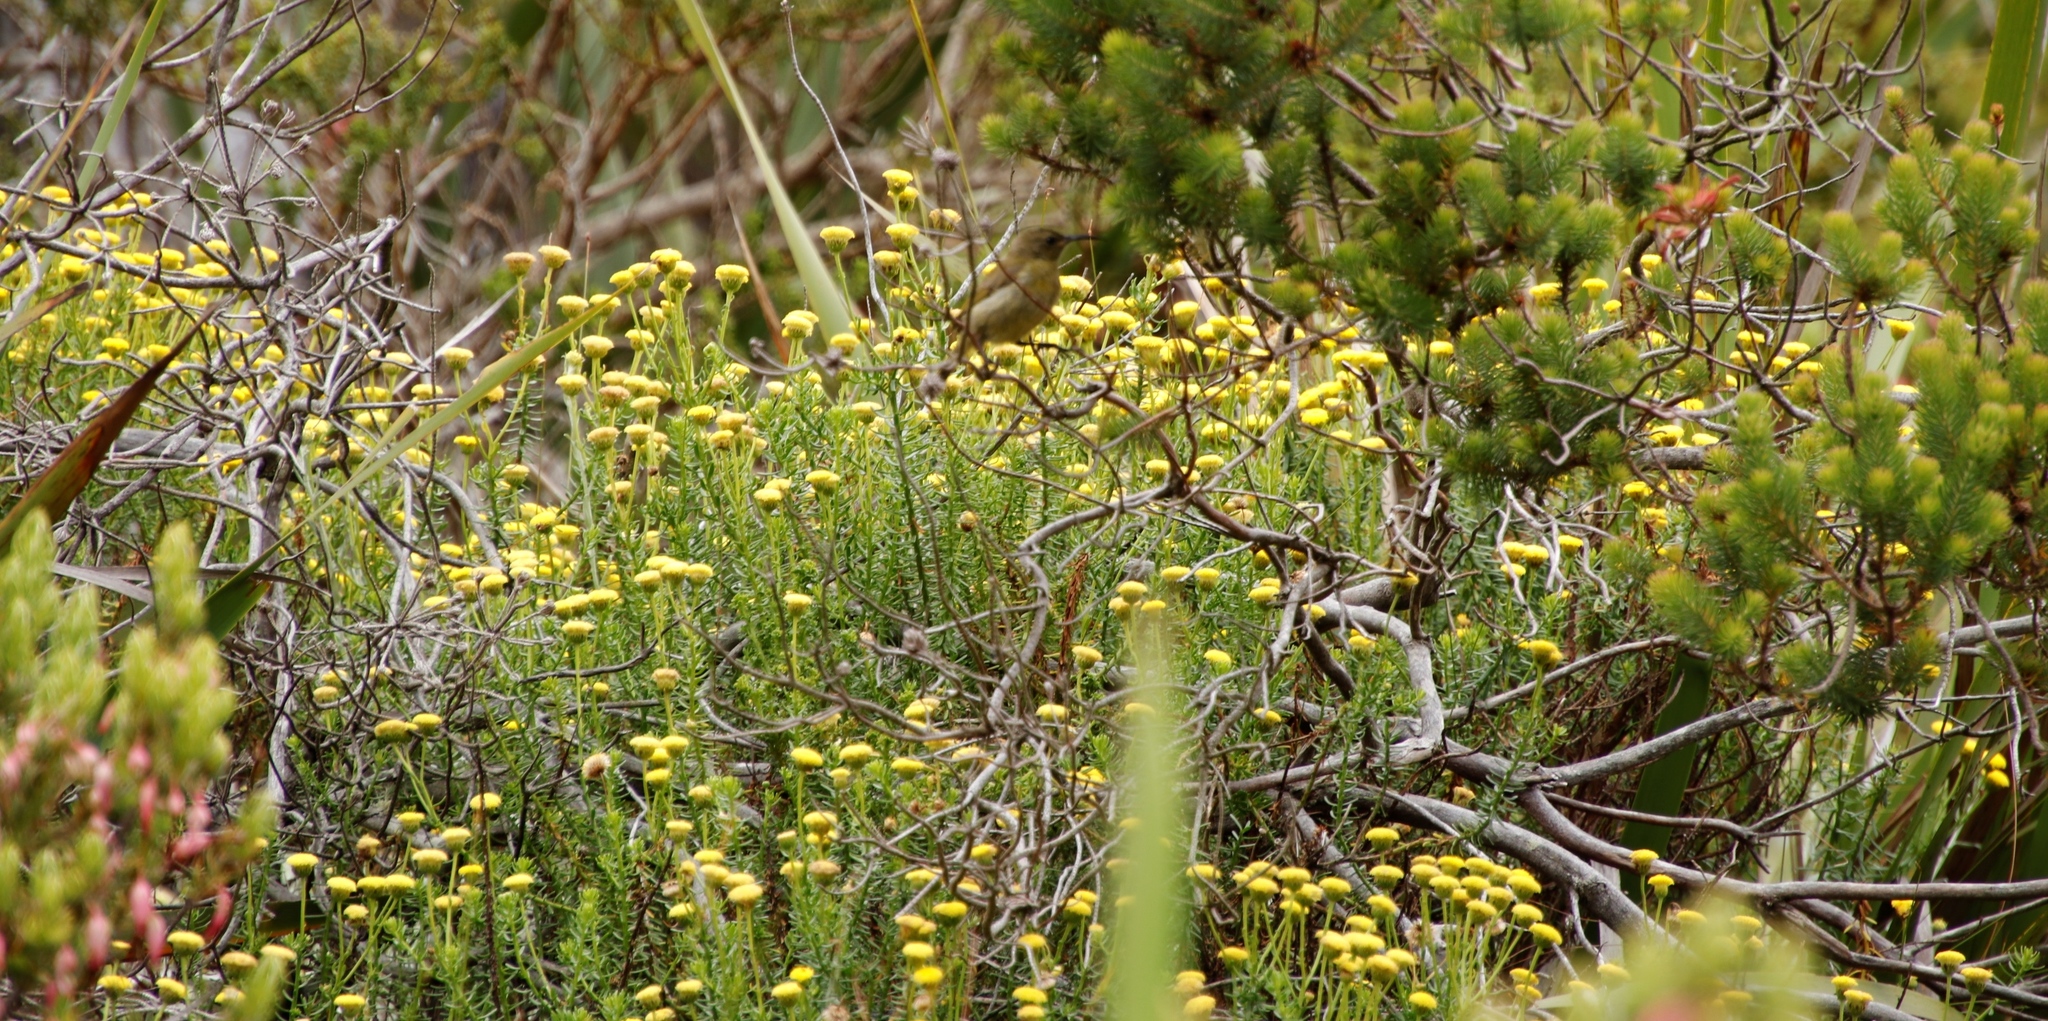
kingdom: Animalia
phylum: Chordata
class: Aves
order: Passeriformes
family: Nectariniidae
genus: Anthobaphes
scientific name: Anthobaphes violacea
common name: Orange-breasted sunbird
